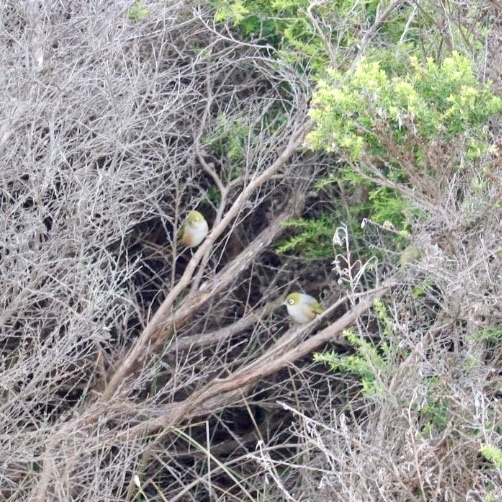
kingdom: Animalia
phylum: Chordata
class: Aves
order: Passeriformes
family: Zosteropidae
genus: Zosterops
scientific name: Zosterops lateralis
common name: Silvereye
